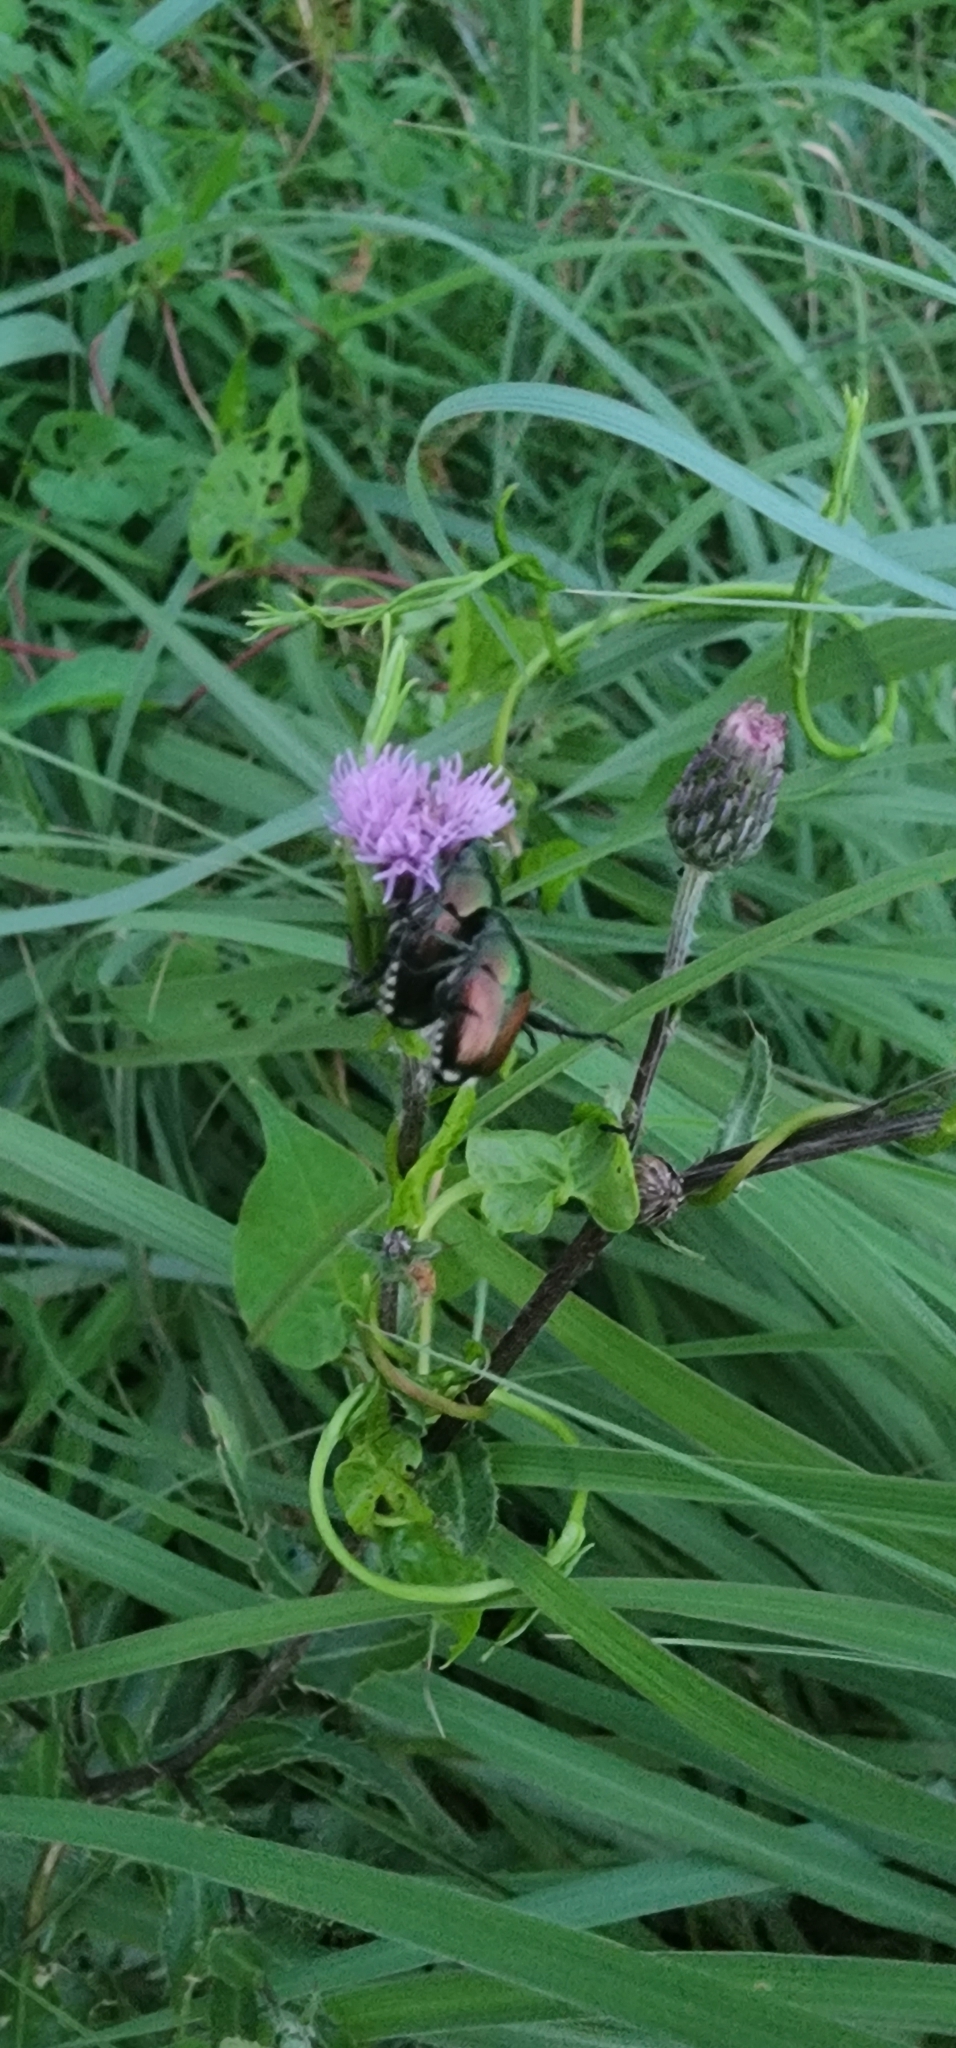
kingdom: Animalia
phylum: Arthropoda
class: Insecta
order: Coleoptera
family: Scarabaeidae
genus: Popillia
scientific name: Popillia japonica
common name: Japanese beetle
